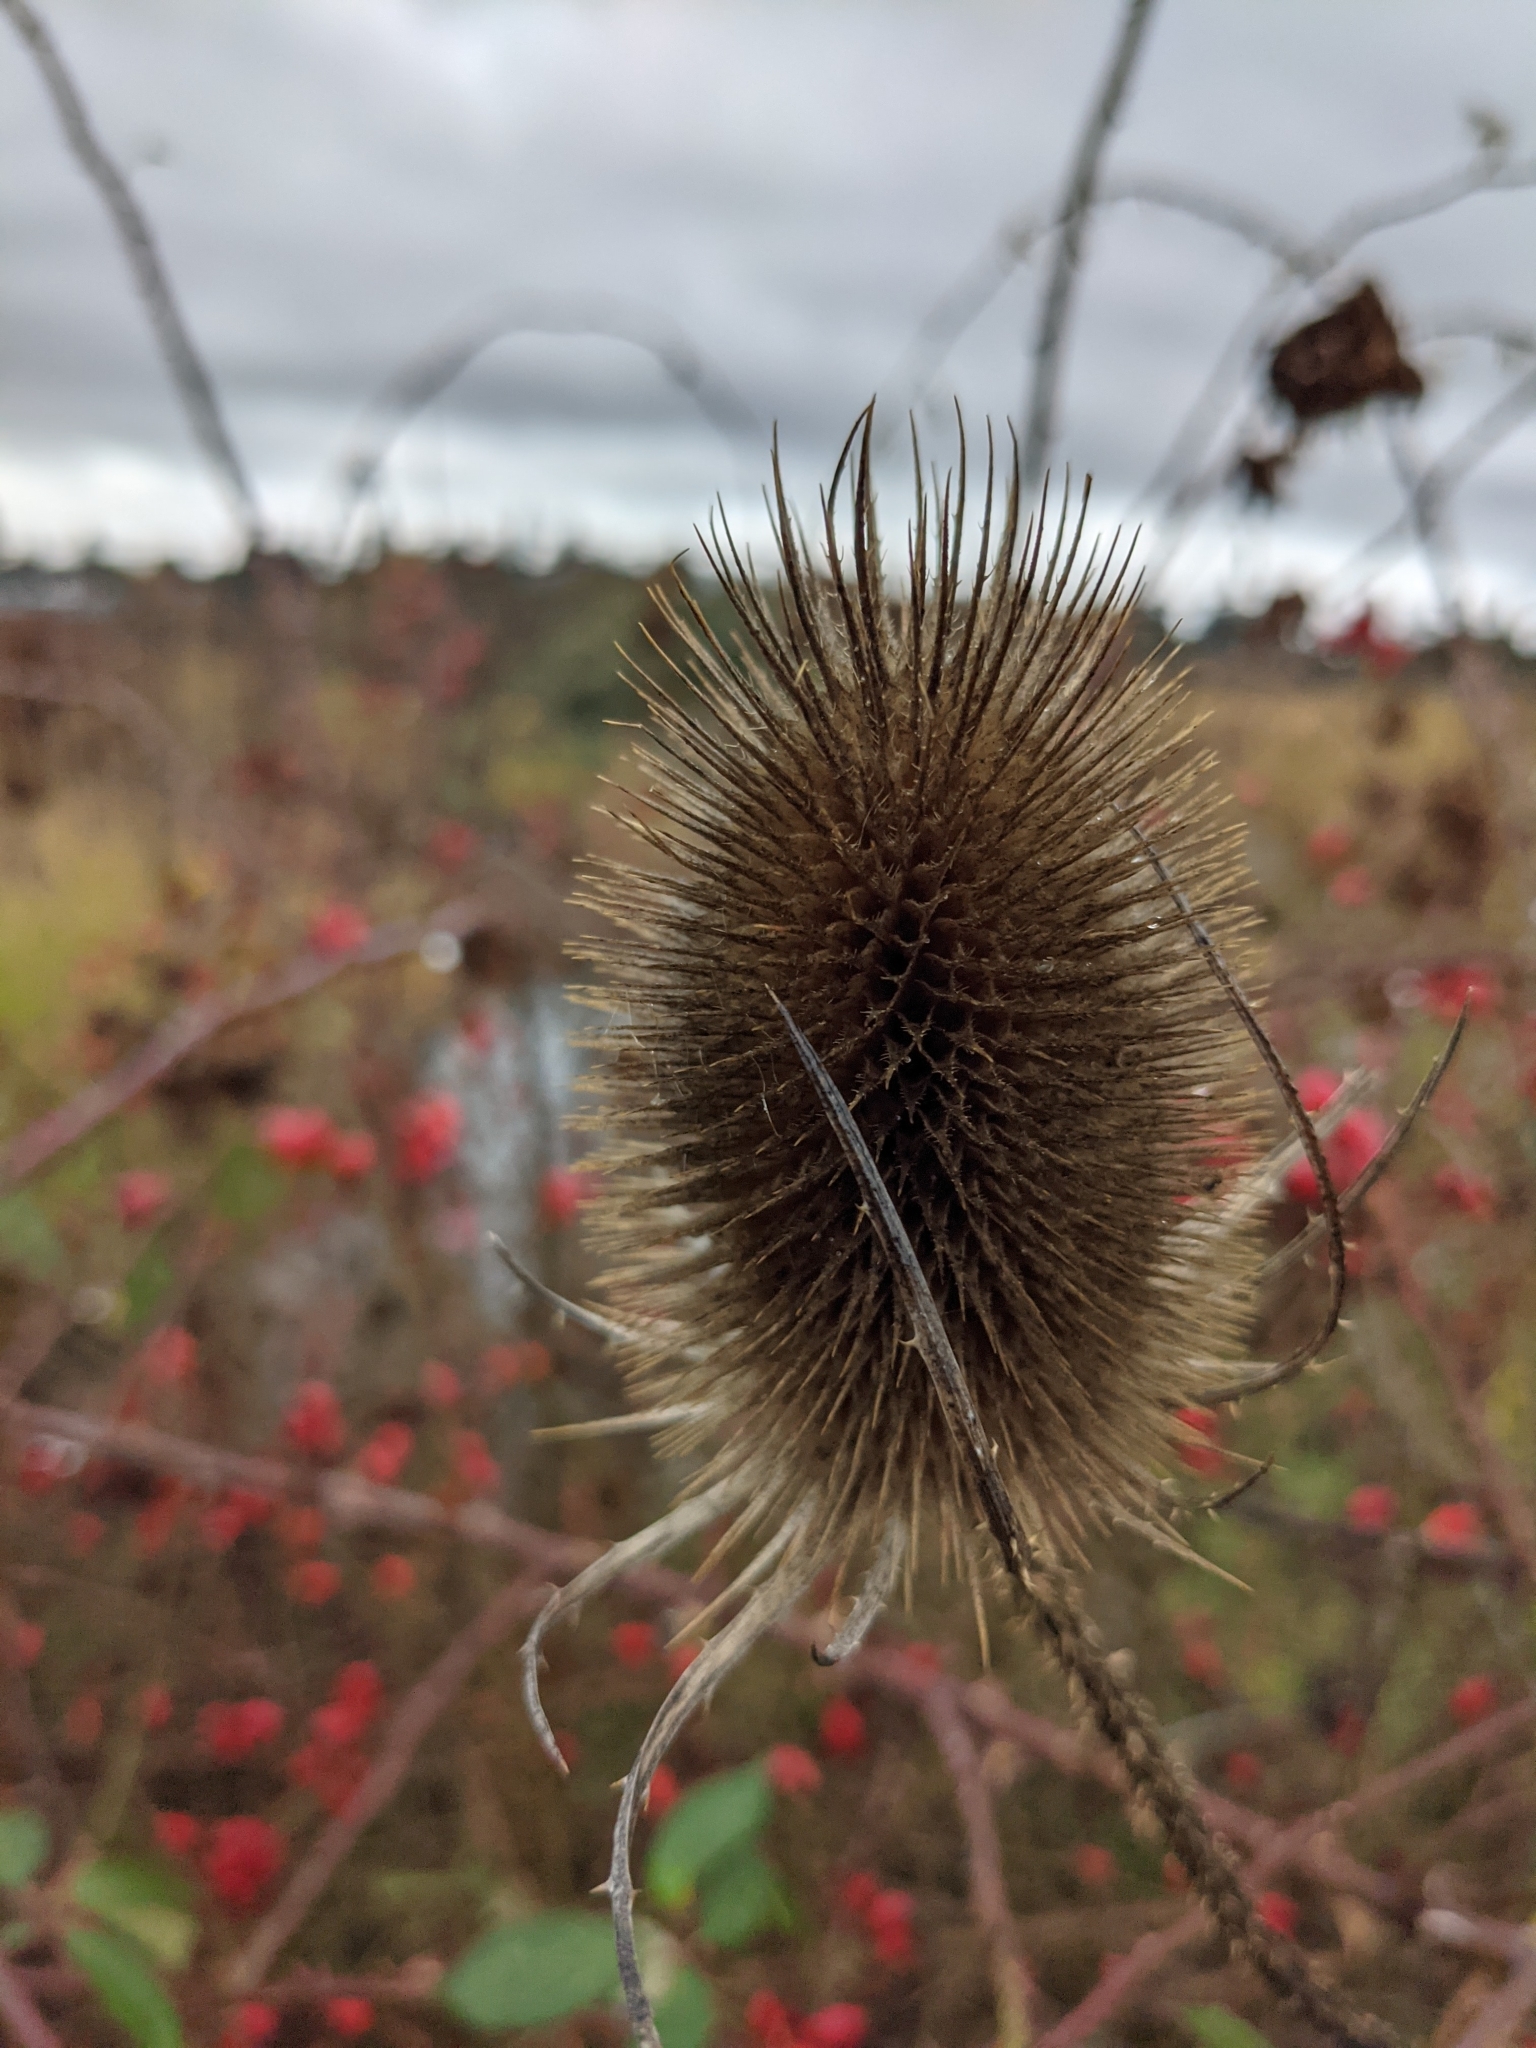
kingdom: Plantae
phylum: Tracheophyta
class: Magnoliopsida
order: Dipsacales
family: Caprifoliaceae
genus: Dipsacus
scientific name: Dipsacus fullonum
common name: Teasel
